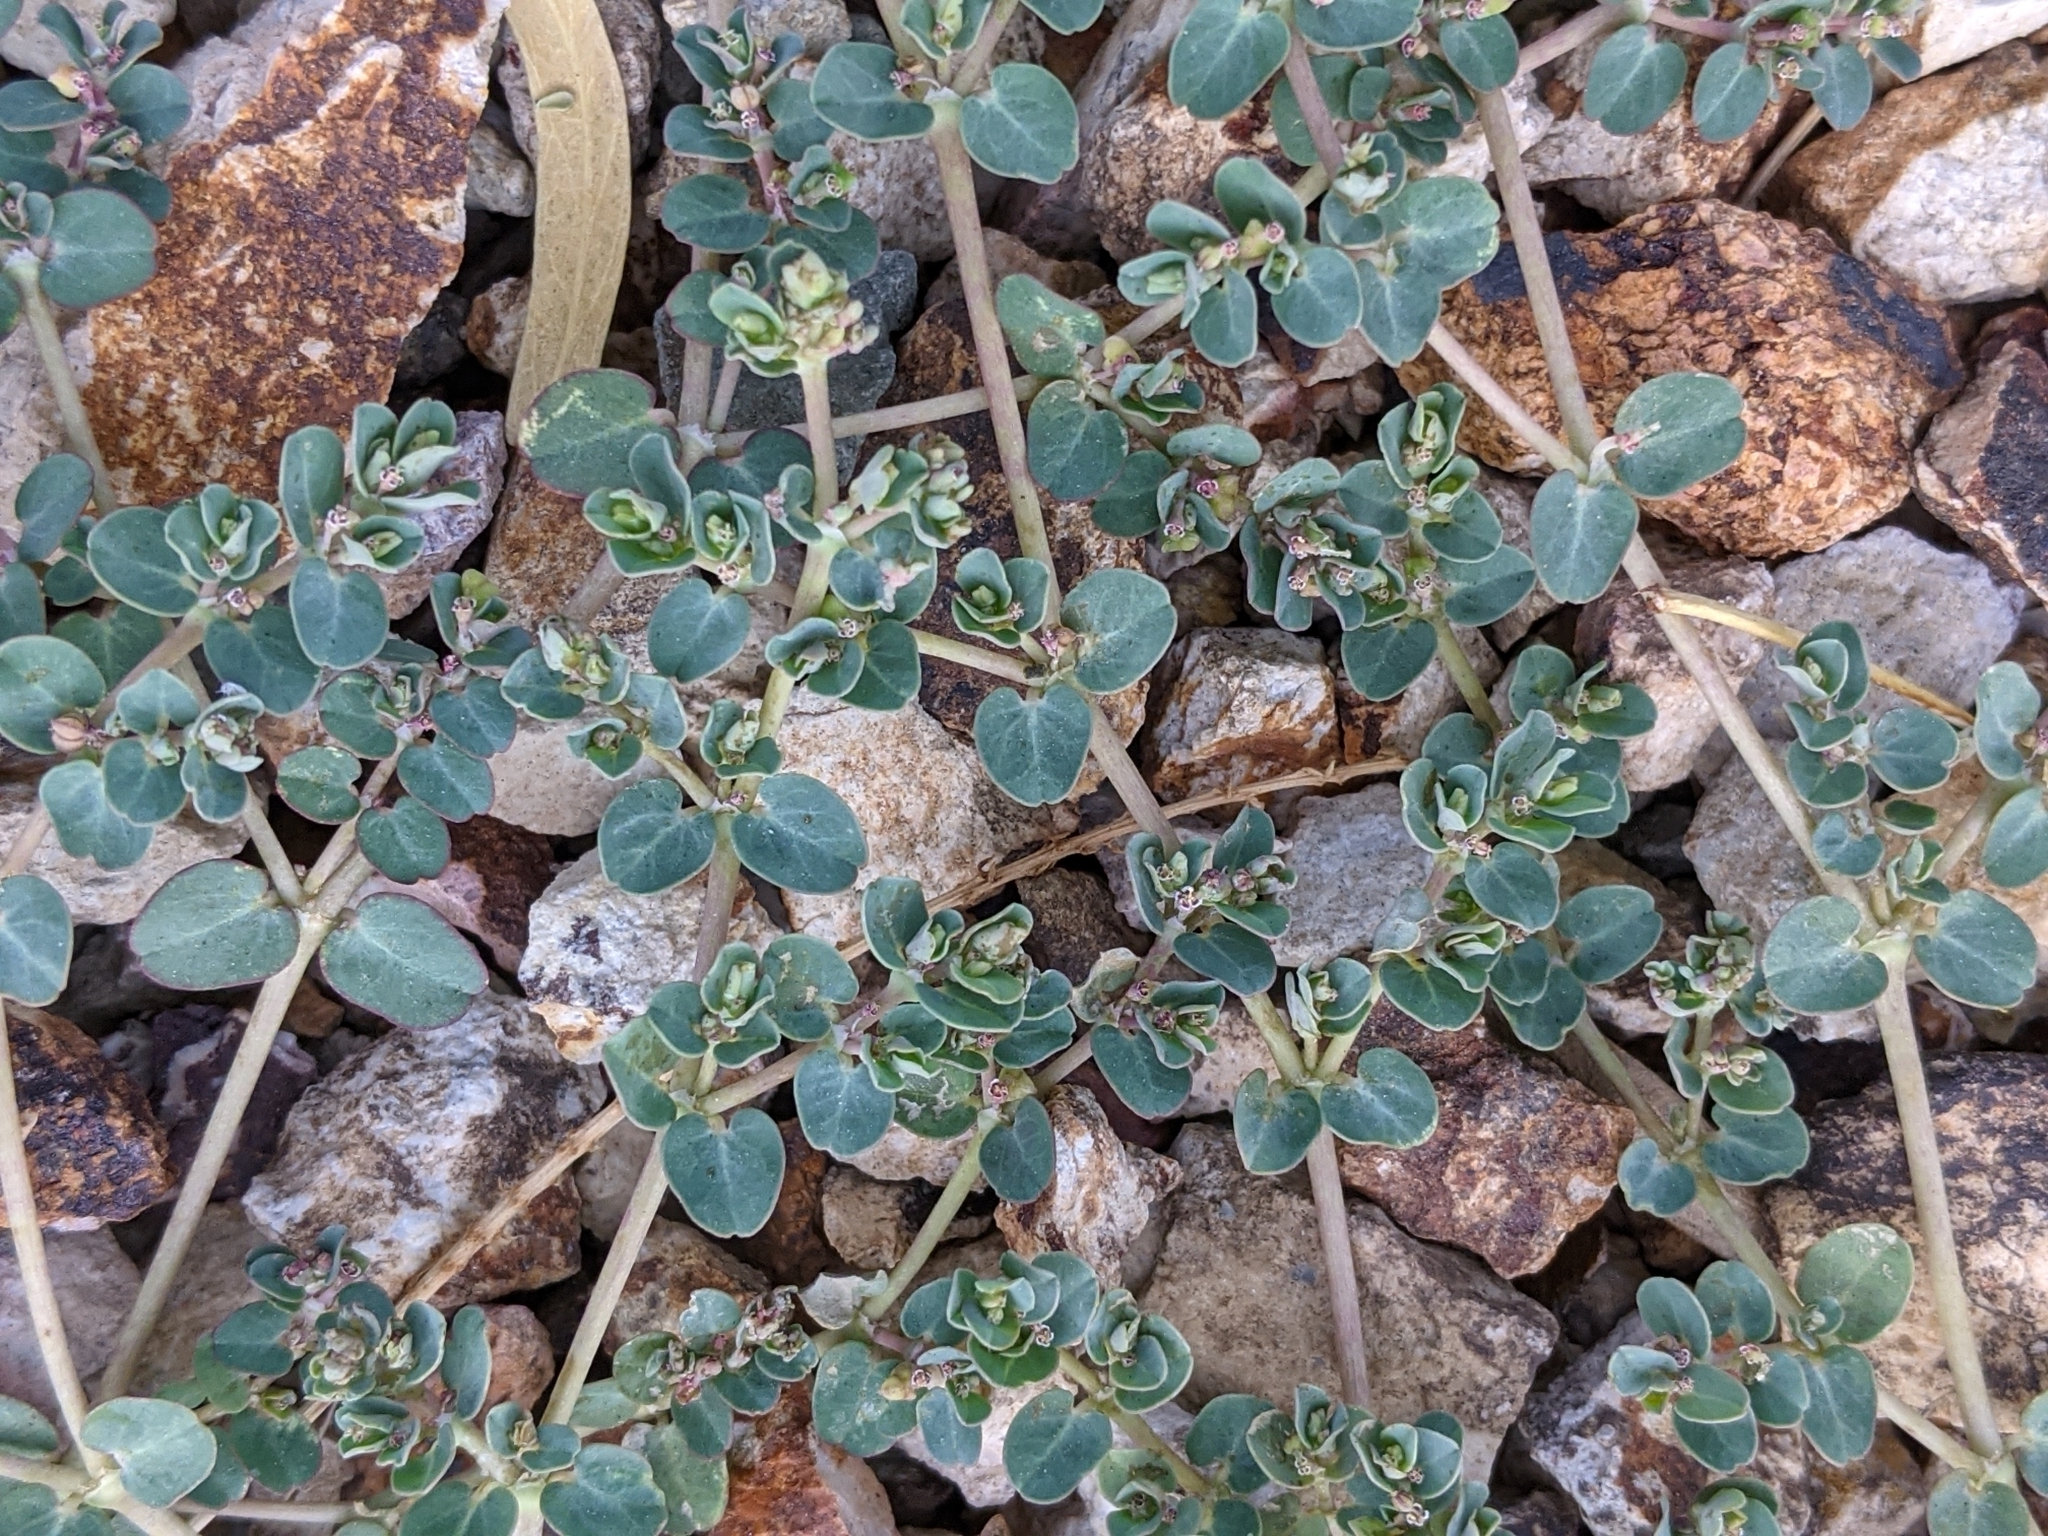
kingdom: Plantae
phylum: Tracheophyta
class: Magnoliopsida
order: Malpighiales
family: Euphorbiaceae
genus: Euphorbia
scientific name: Euphorbia serpens
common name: Matted sandmat
